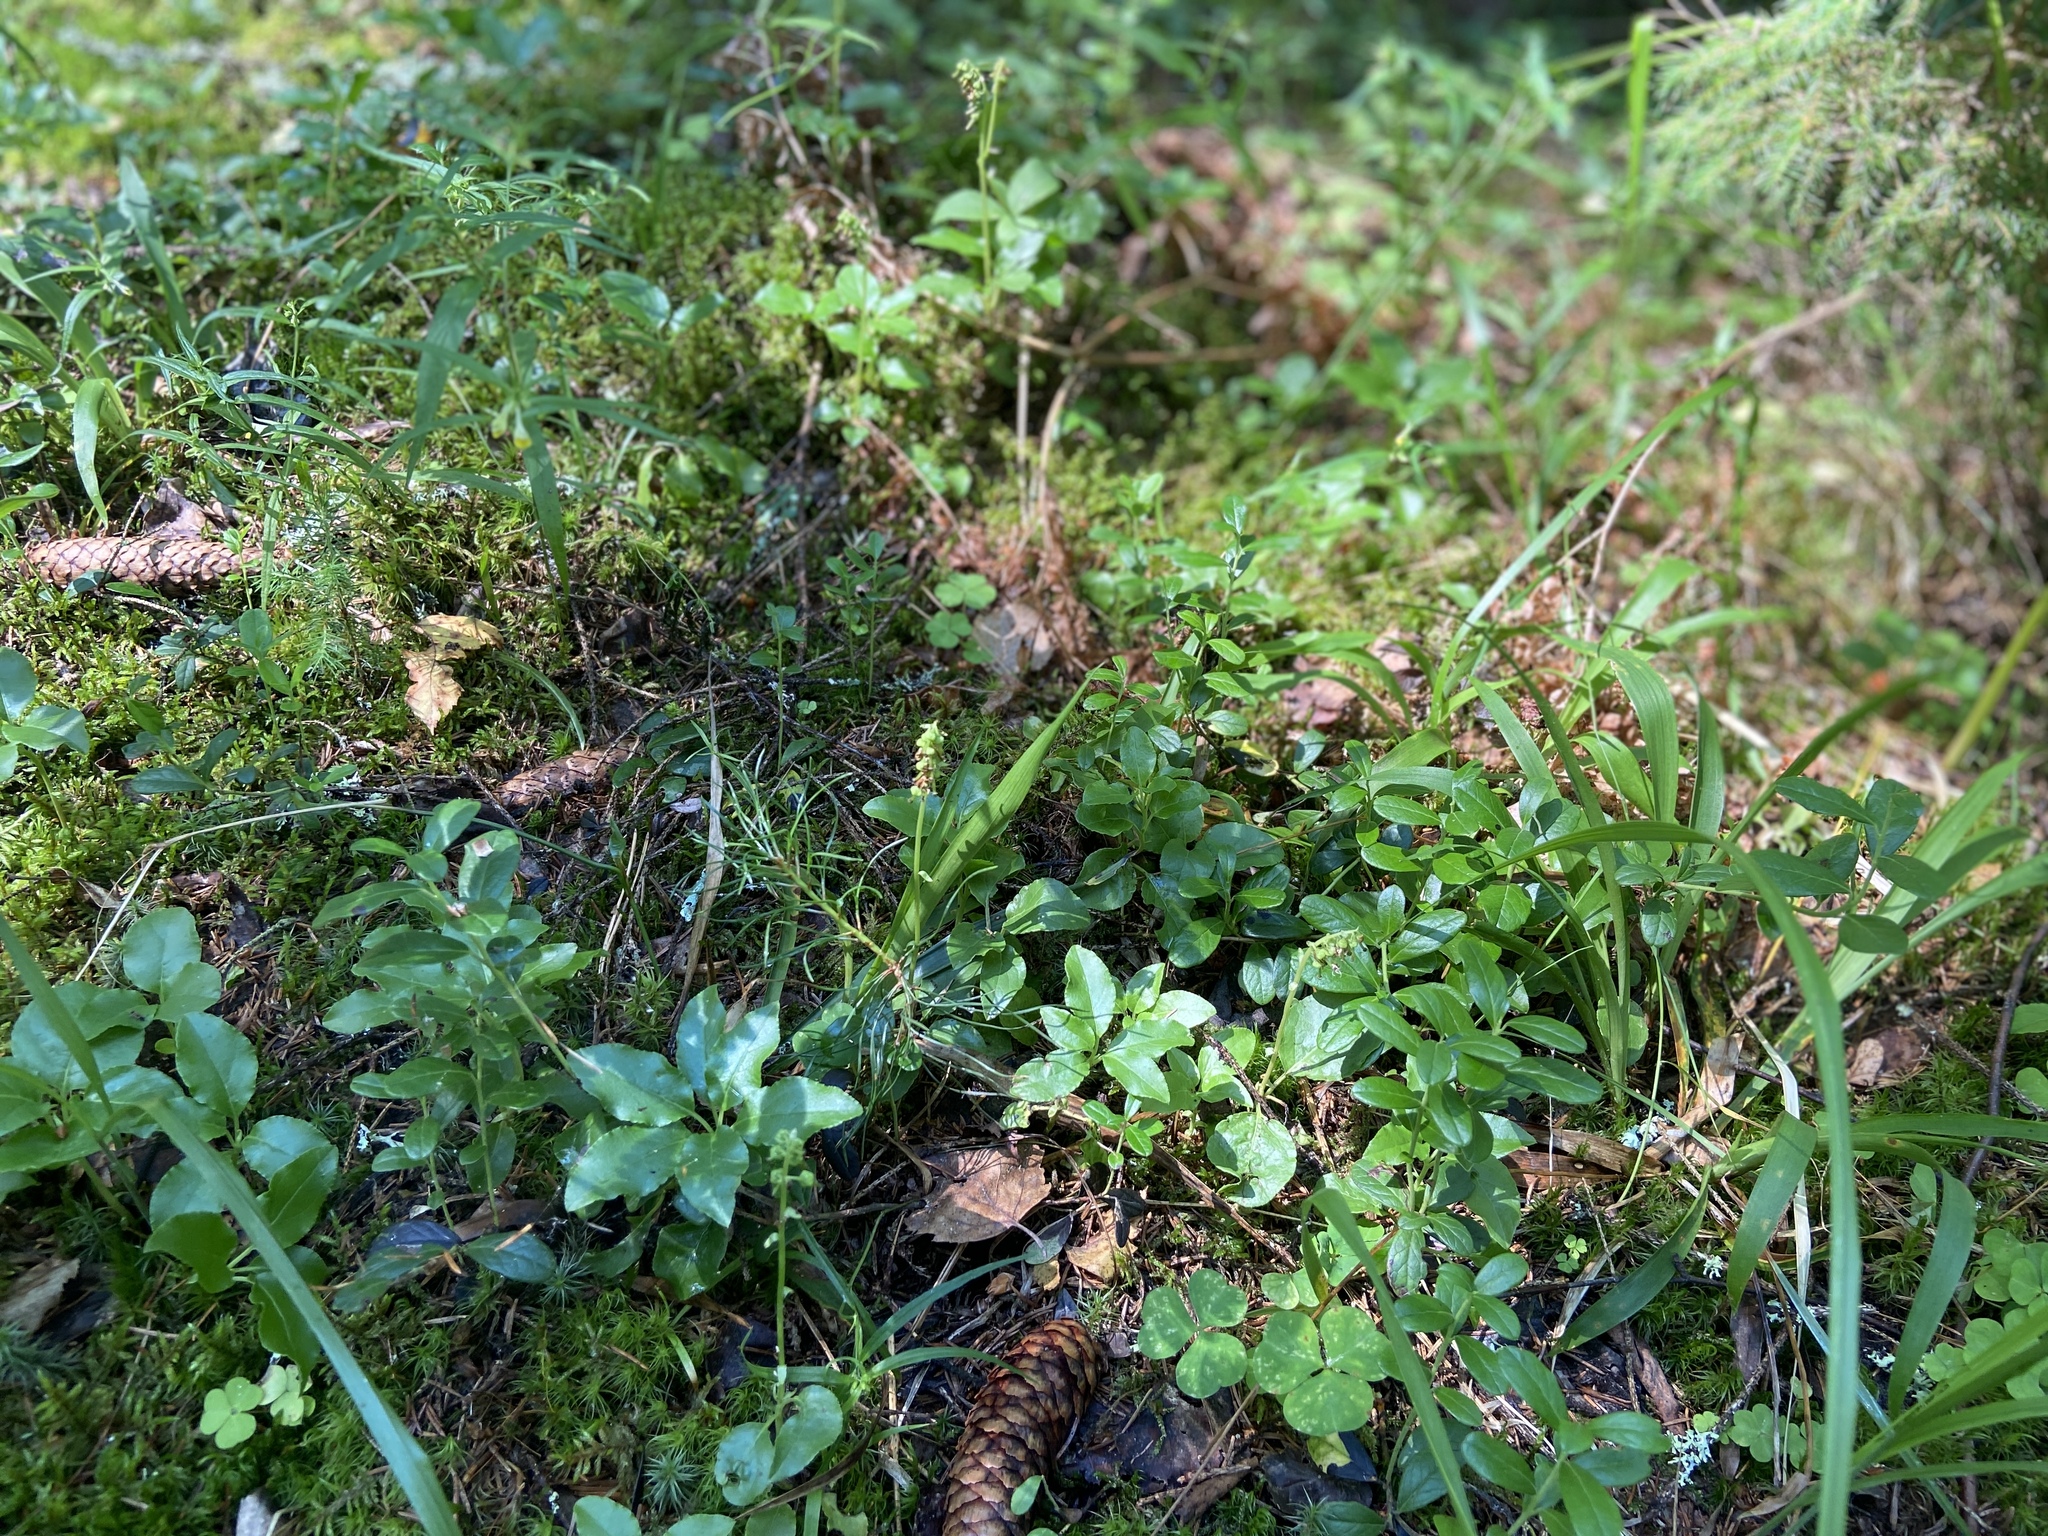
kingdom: Plantae
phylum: Tracheophyta
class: Magnoliopsida
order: Ericales
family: Ericaceae
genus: Orthilia
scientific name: Orthilia secunda
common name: One-sided orthilia
